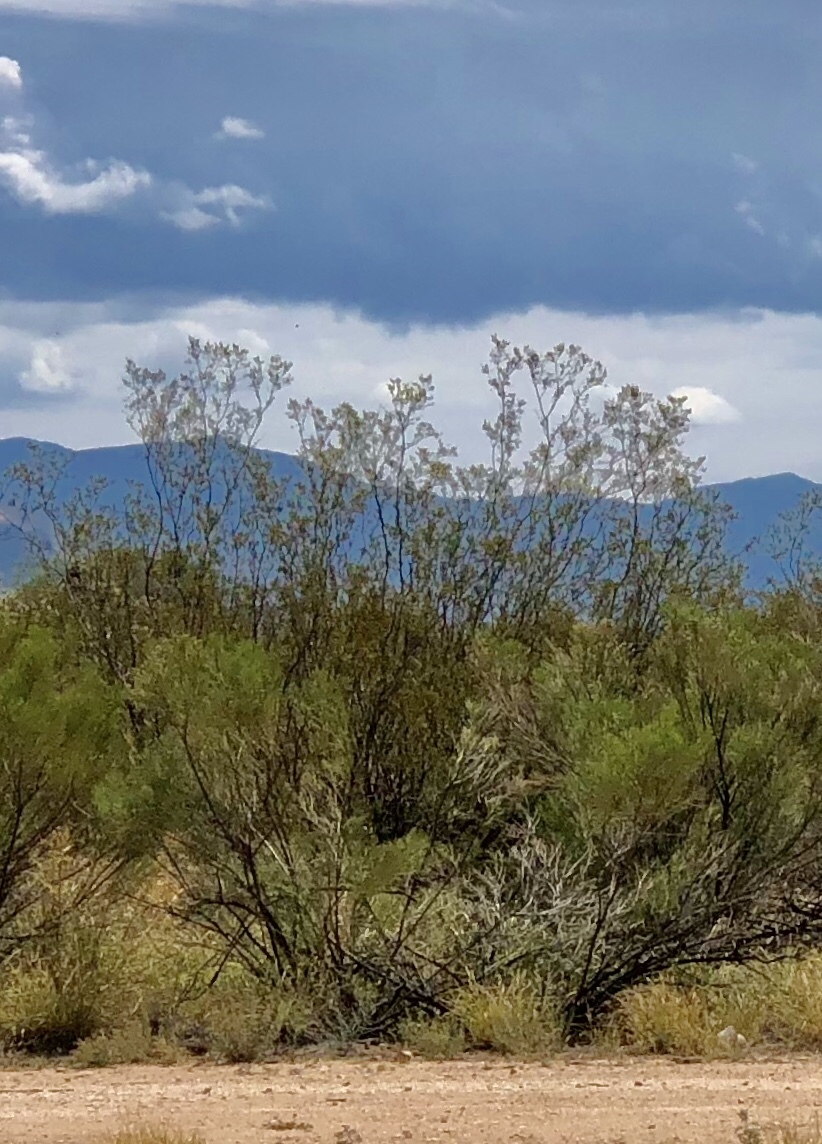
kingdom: Plantae
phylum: Tracheophyta
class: Magnoliopsida
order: Zygophyllales
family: Zygophyllaceae
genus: Larrea
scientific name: Larrea tridentata
